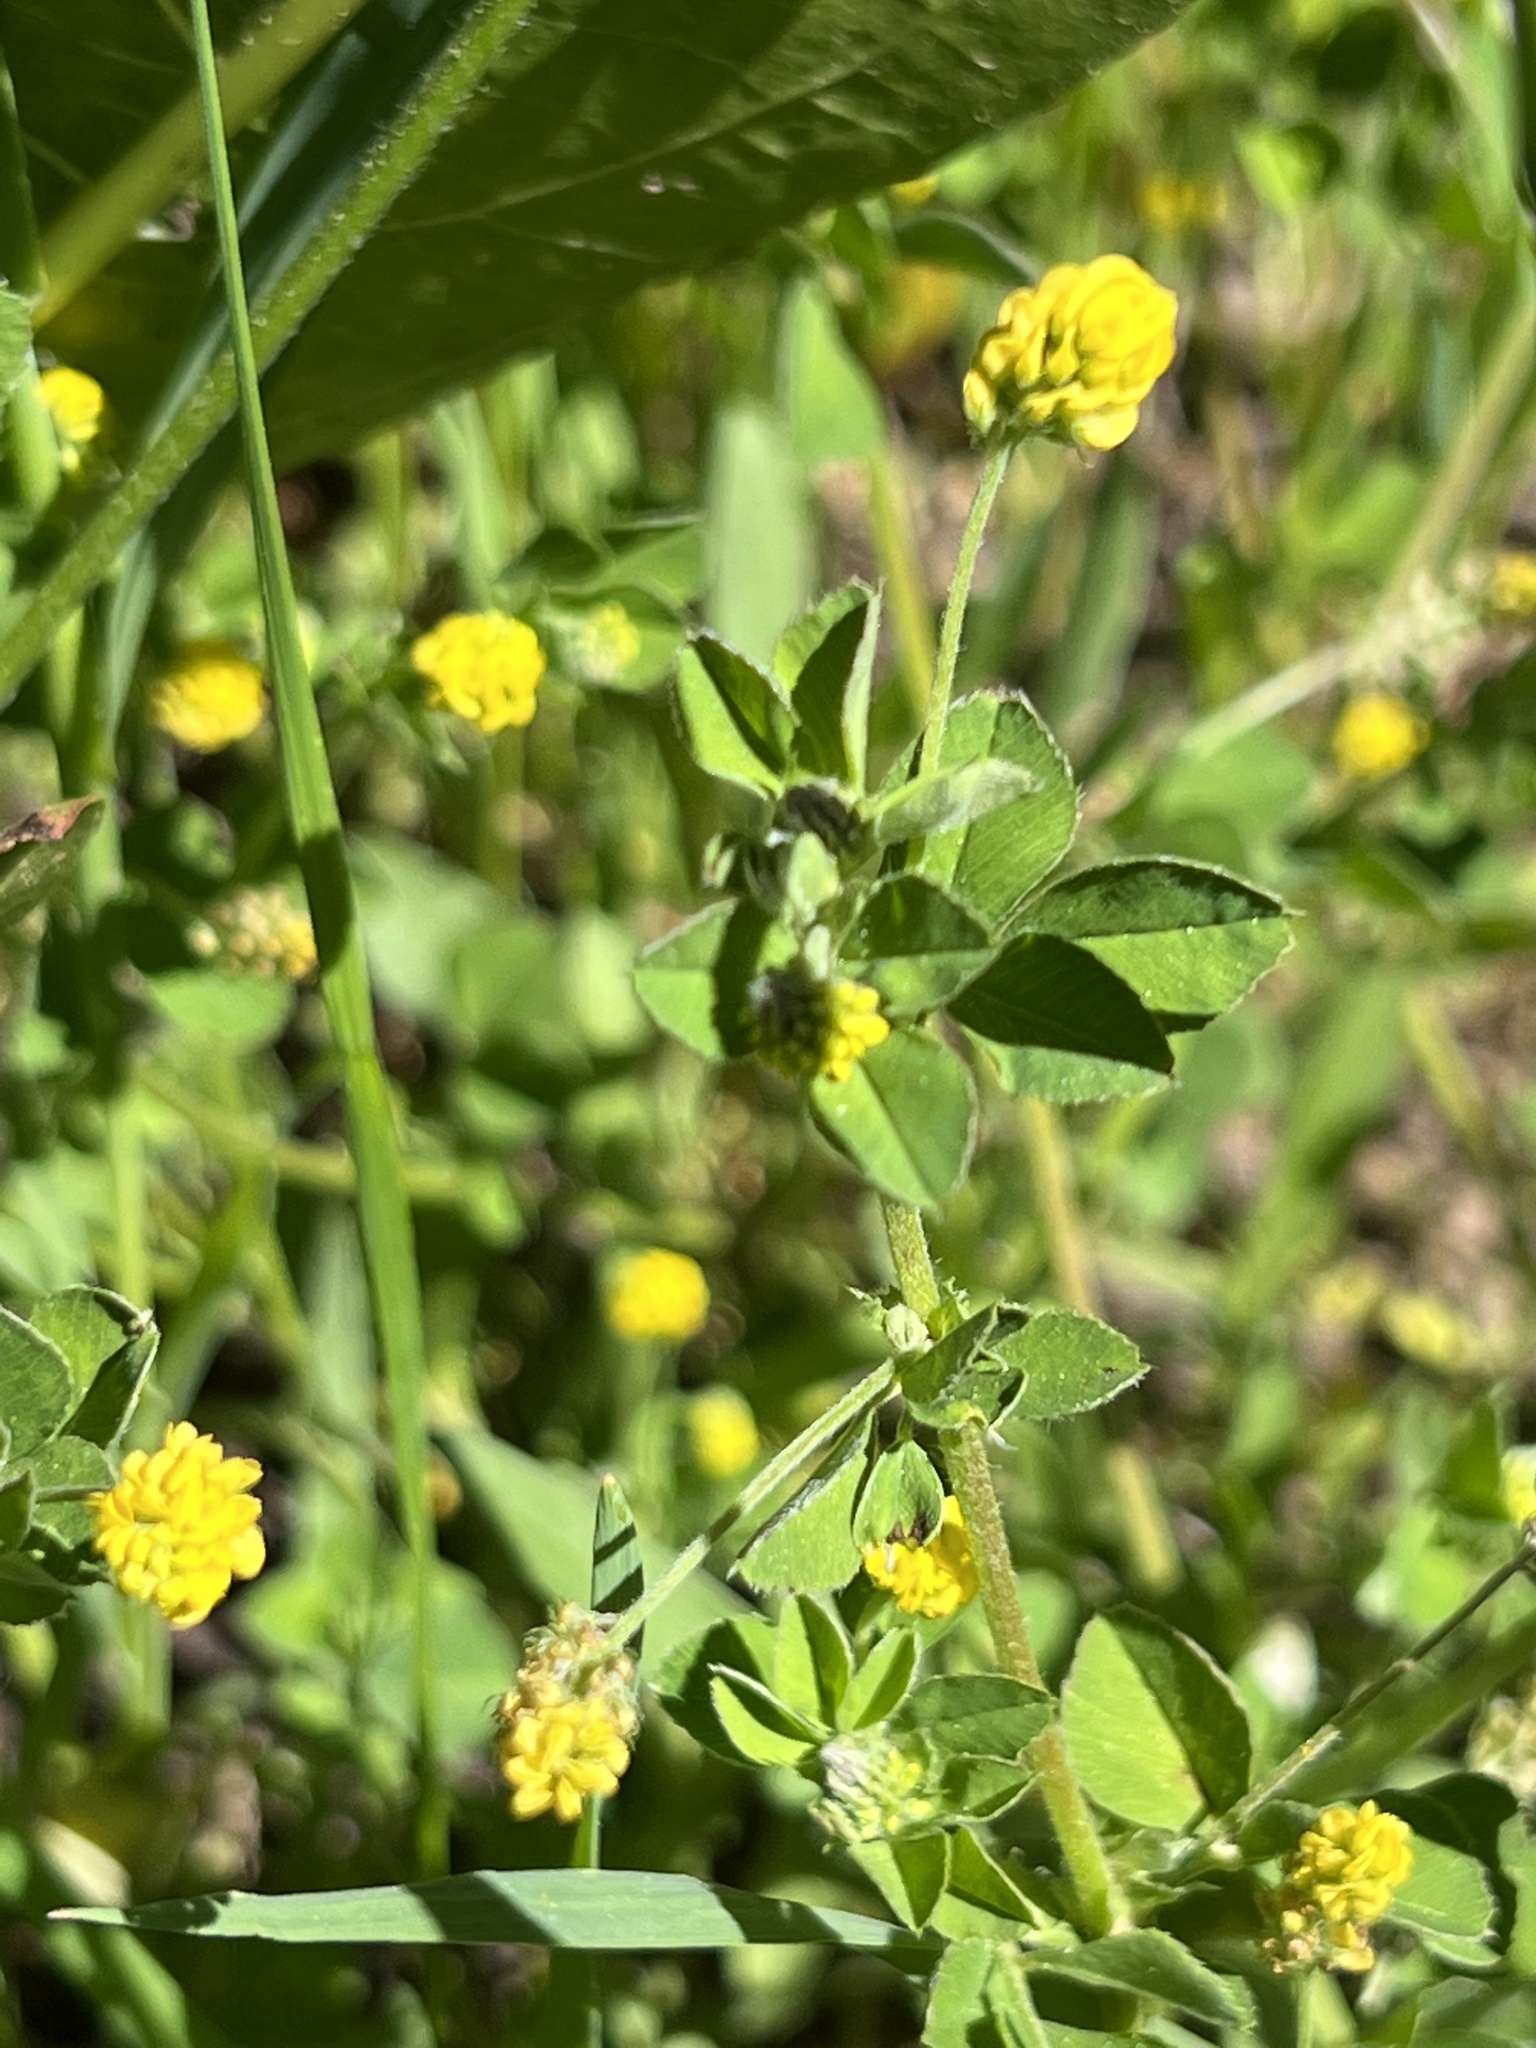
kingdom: Plantae
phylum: Tracheophyta
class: Magnoliopsida
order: Fabales
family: Fabaceae
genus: Medicago
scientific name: Medicago lupulina
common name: Black medick
